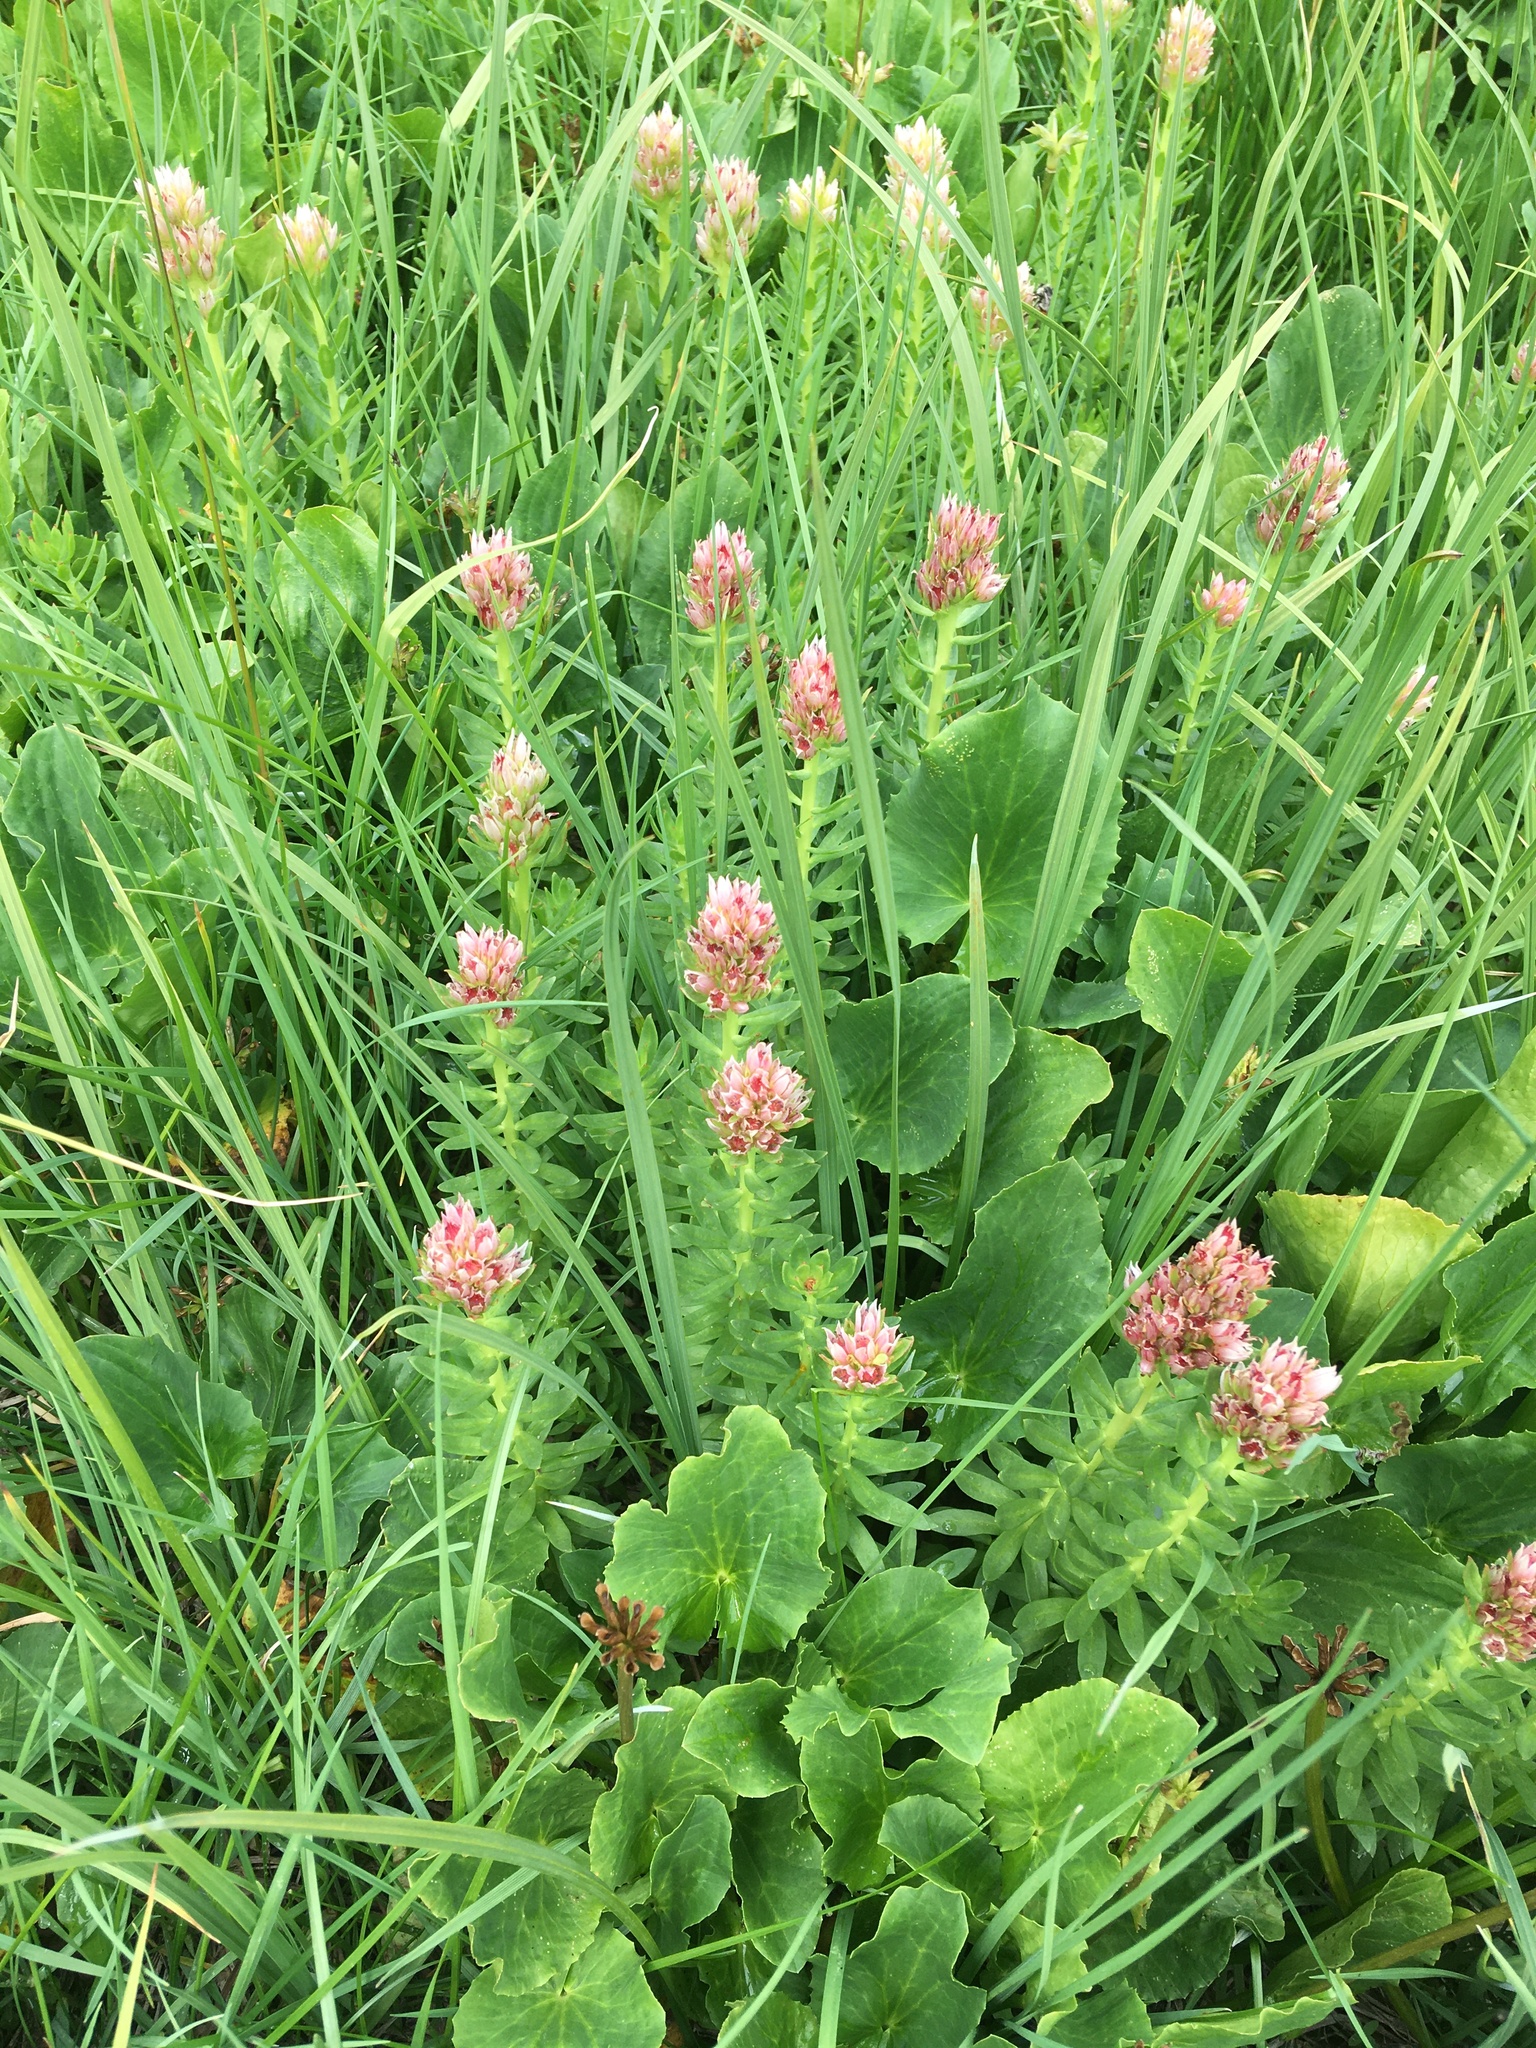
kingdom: Plantae
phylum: Tracheophyta
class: Magnoliopsida
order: Saxifragales
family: Crassulaceae
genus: Rhodiola
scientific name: Rhodiola rhodantha
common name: Red orpine
